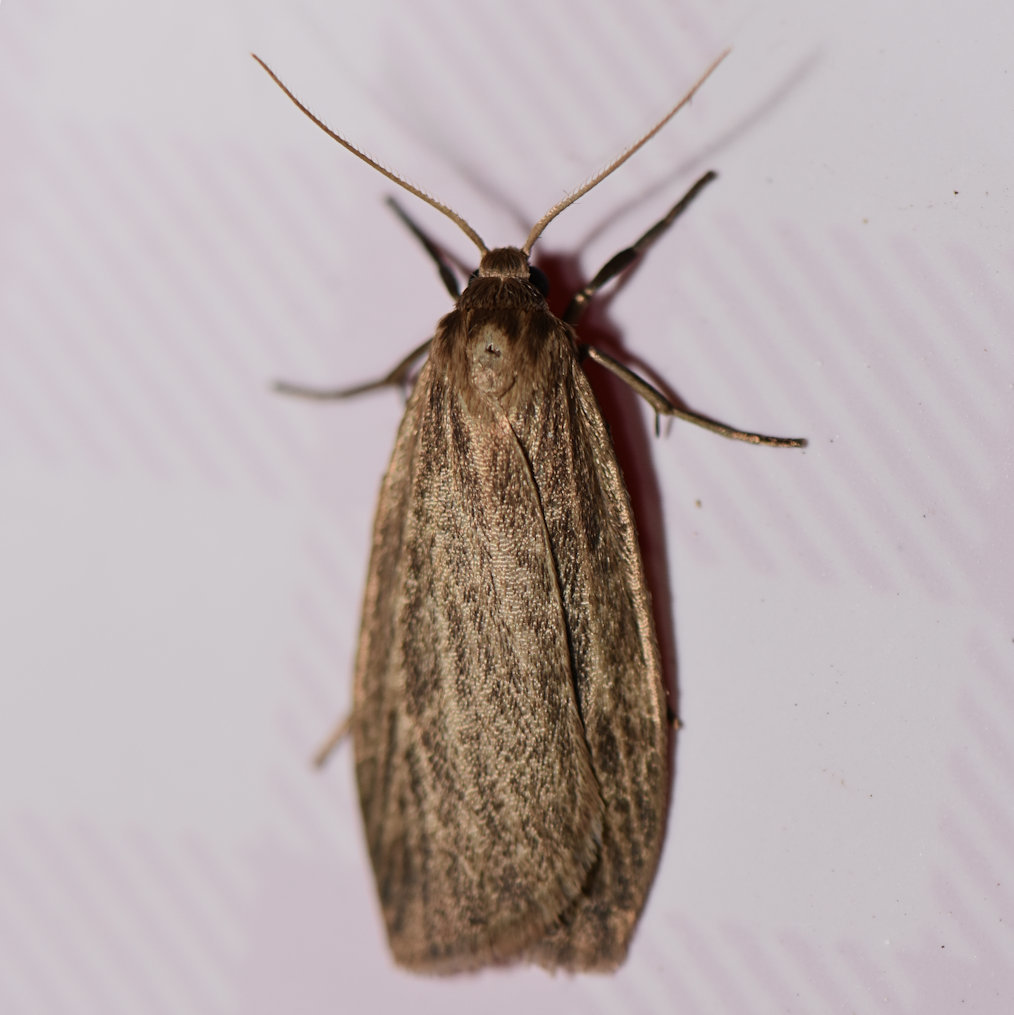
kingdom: Animalia
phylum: Arthropoda
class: Insecta
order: Lepidoptera
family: Erebidae
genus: Crambidia
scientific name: Crambidia pallida
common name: Pale lichen moth
